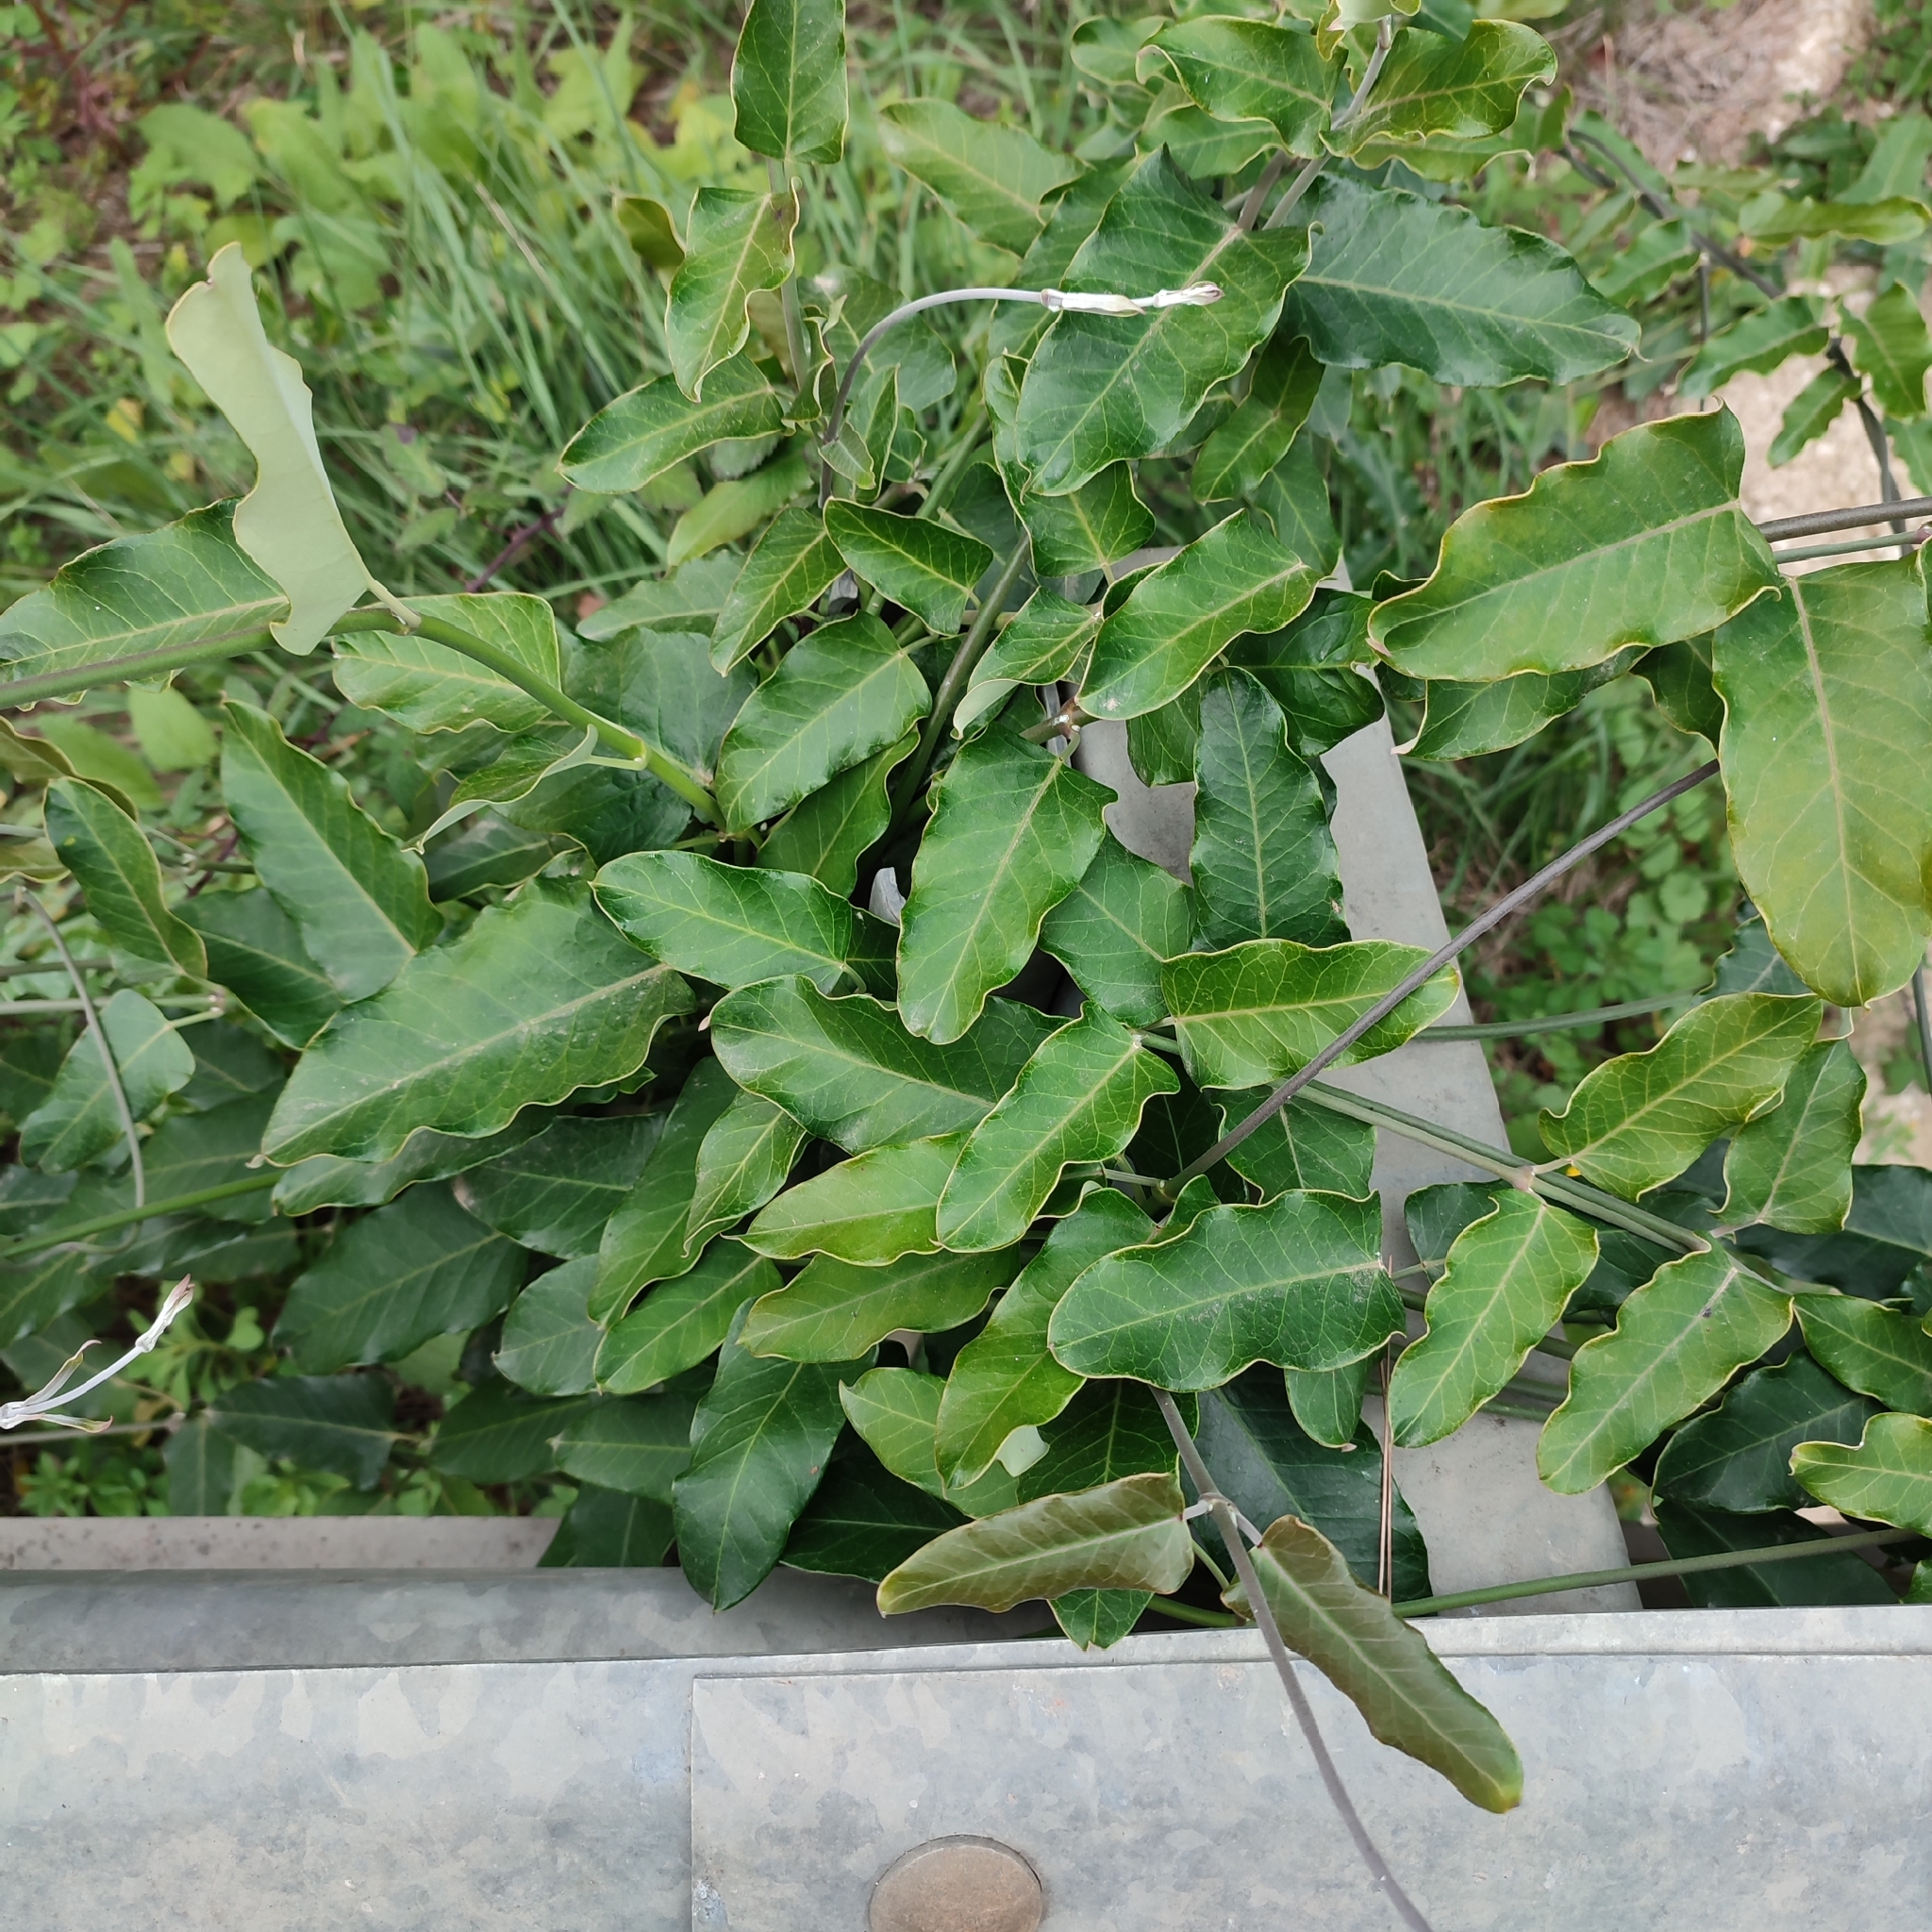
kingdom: Plantae
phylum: Tracheophyta
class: Magnoliopsida
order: Gentianales
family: Apocynaceae
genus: Araujia
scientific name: Araujia sericifera
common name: White bladderflower
